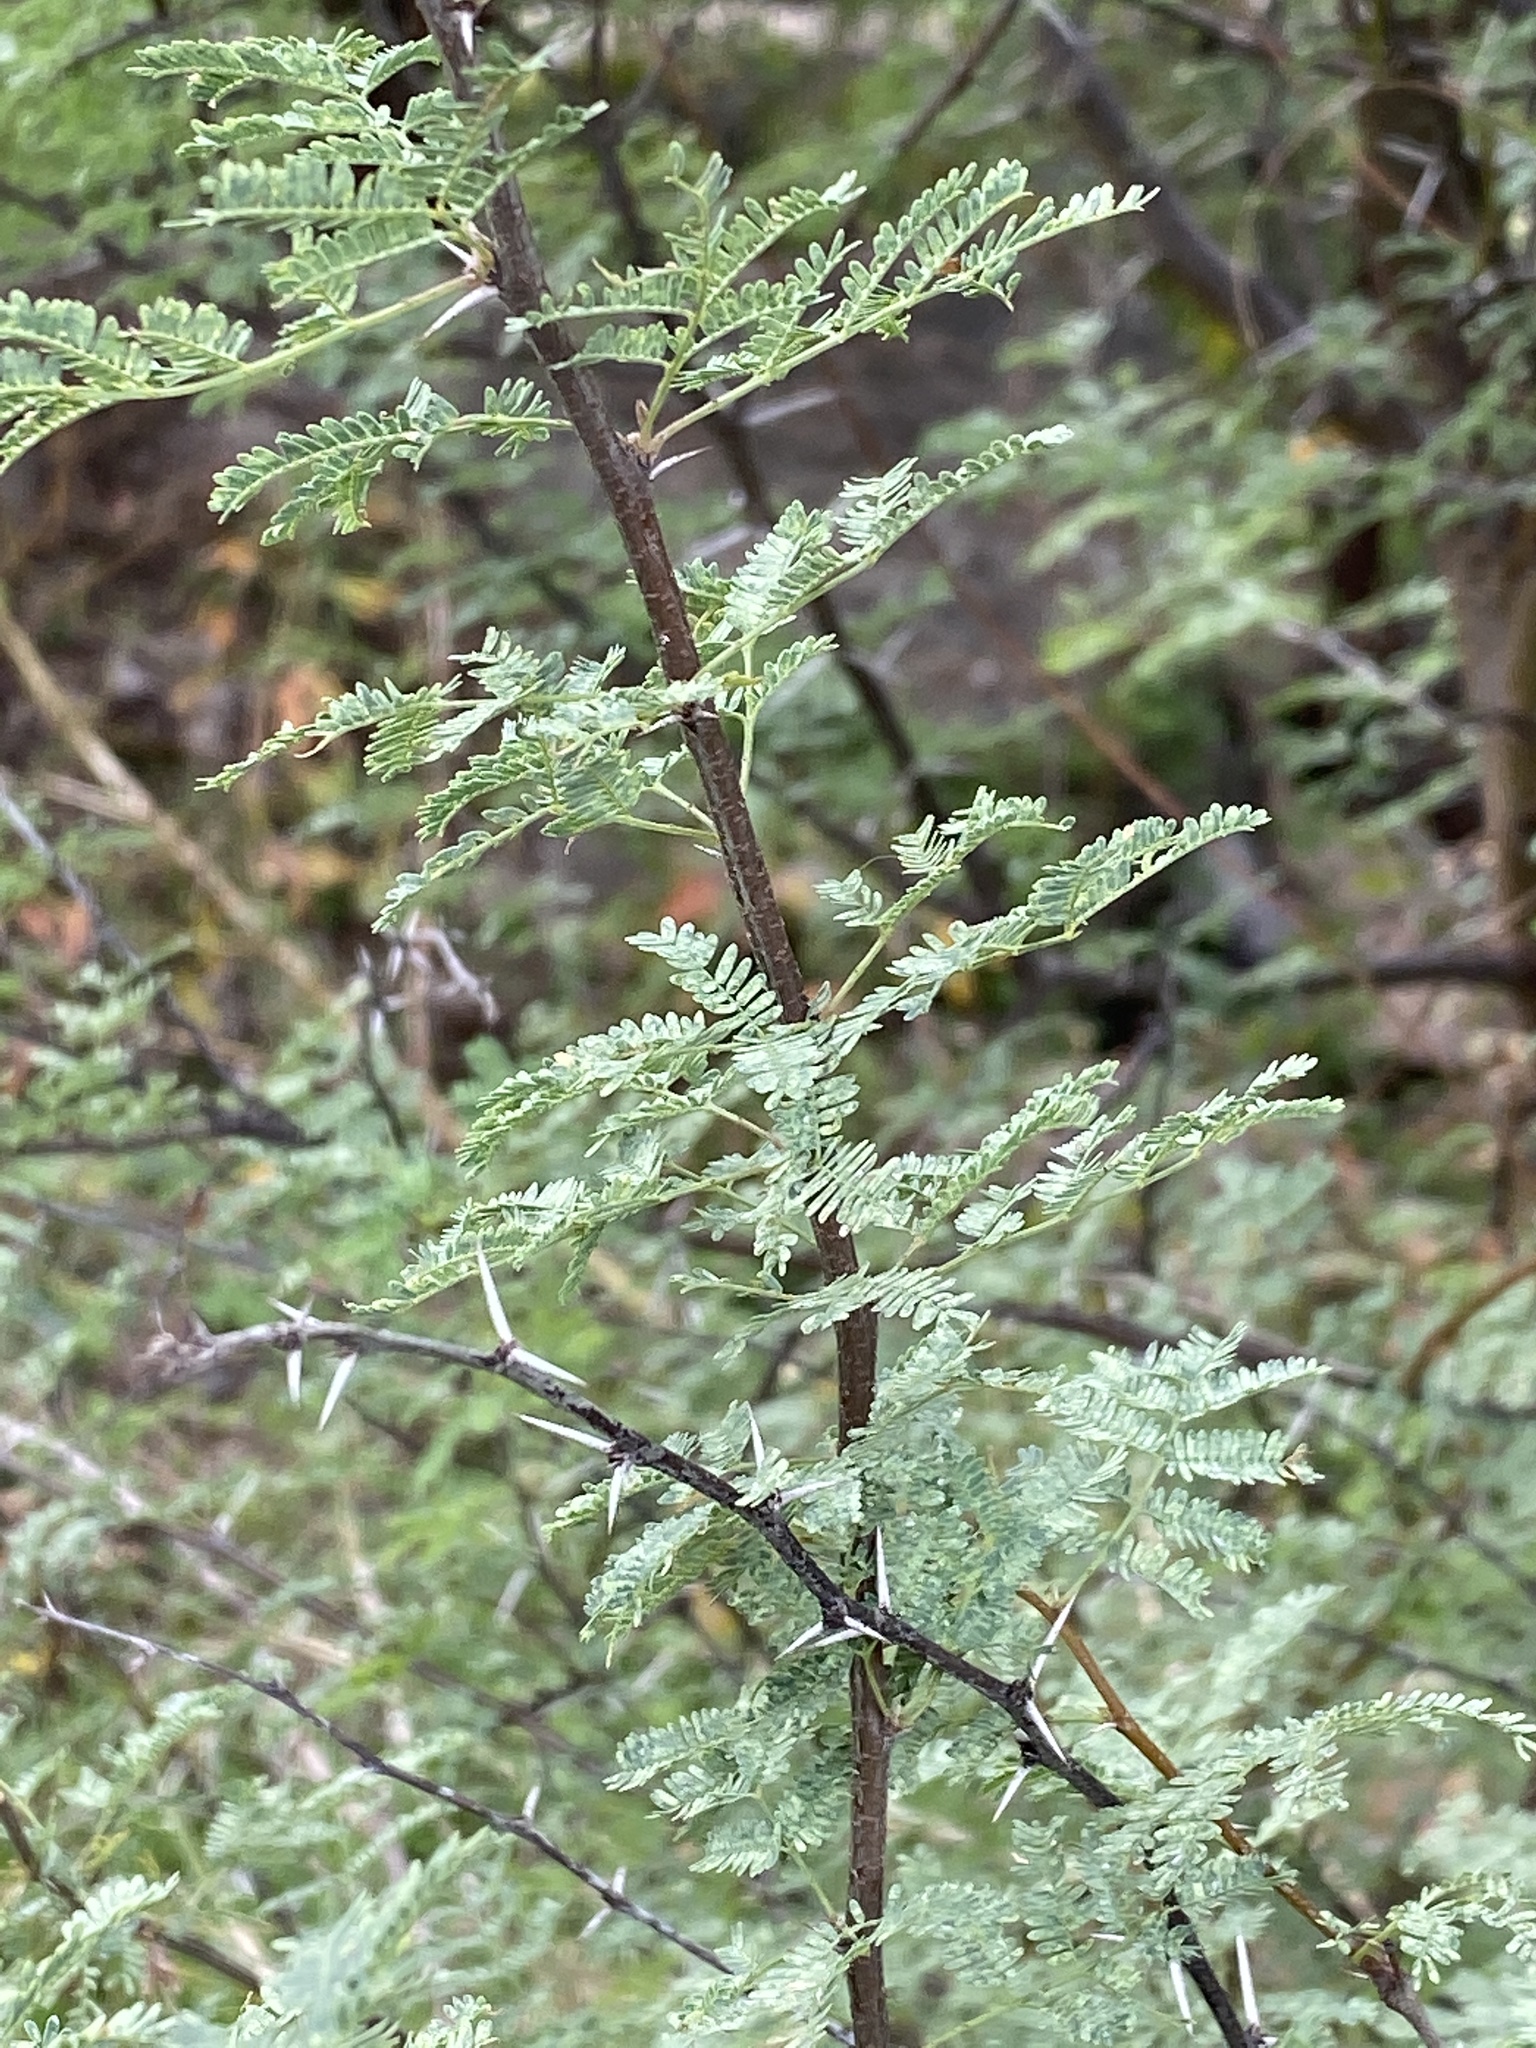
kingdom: Plantae
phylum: Tracheophyta
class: Magnoliopsida
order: Fabales
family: Fabaceae
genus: Vachellia
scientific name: Vachellia farnesiana
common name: Sweet acacia
